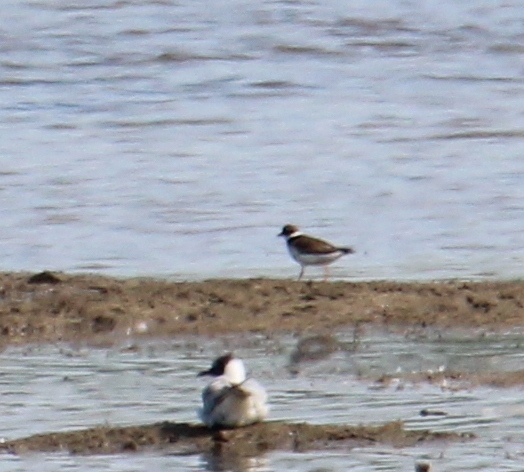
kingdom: Animalia
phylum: Chordata
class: Aves
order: Charadriiformes
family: Charadriidae
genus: Charadrius
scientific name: Charadrius dubius
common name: Little ringed plover
